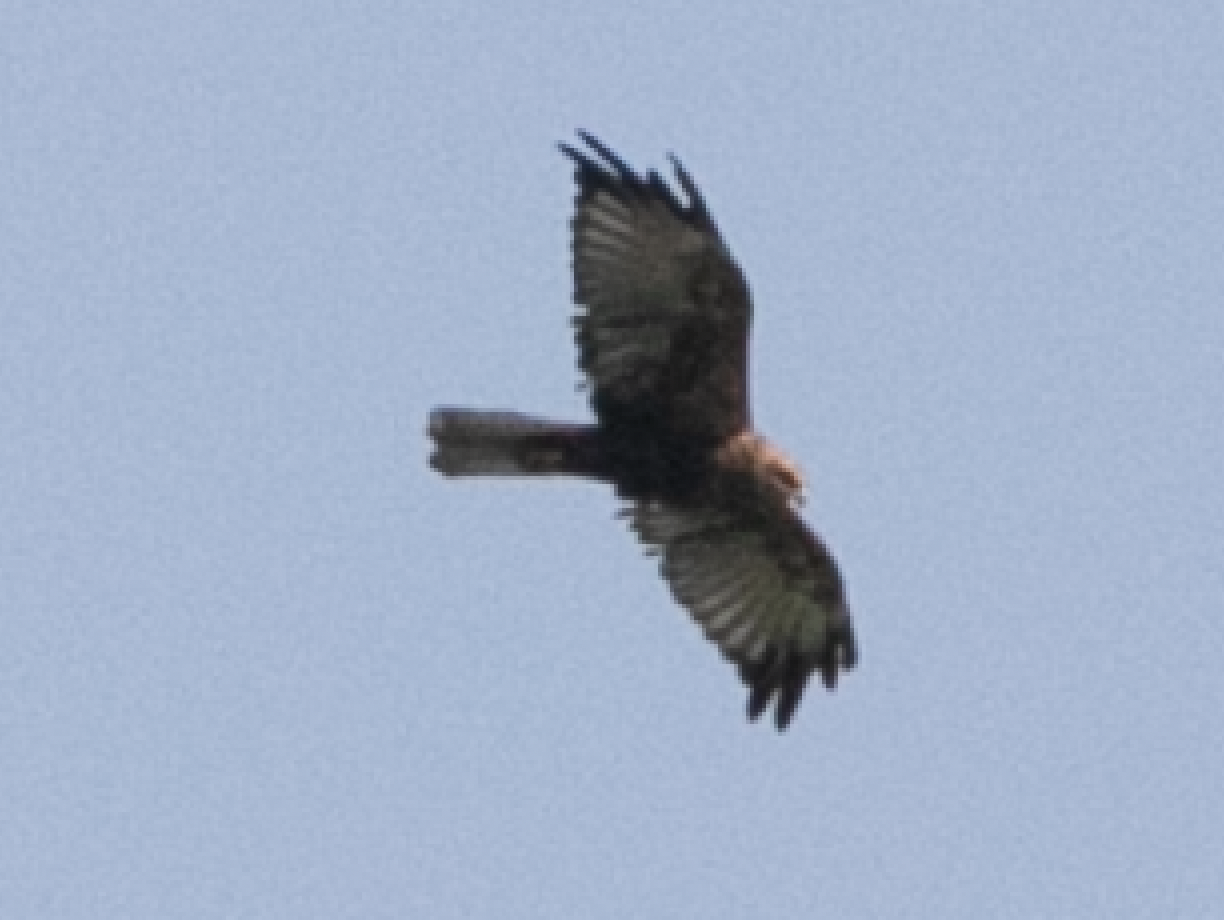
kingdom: Animalia
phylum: Chordata
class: Aves
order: Accipitriformes
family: Accipitridae
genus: Circus
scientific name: Circus aeruginosus
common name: Western marsh harrier
